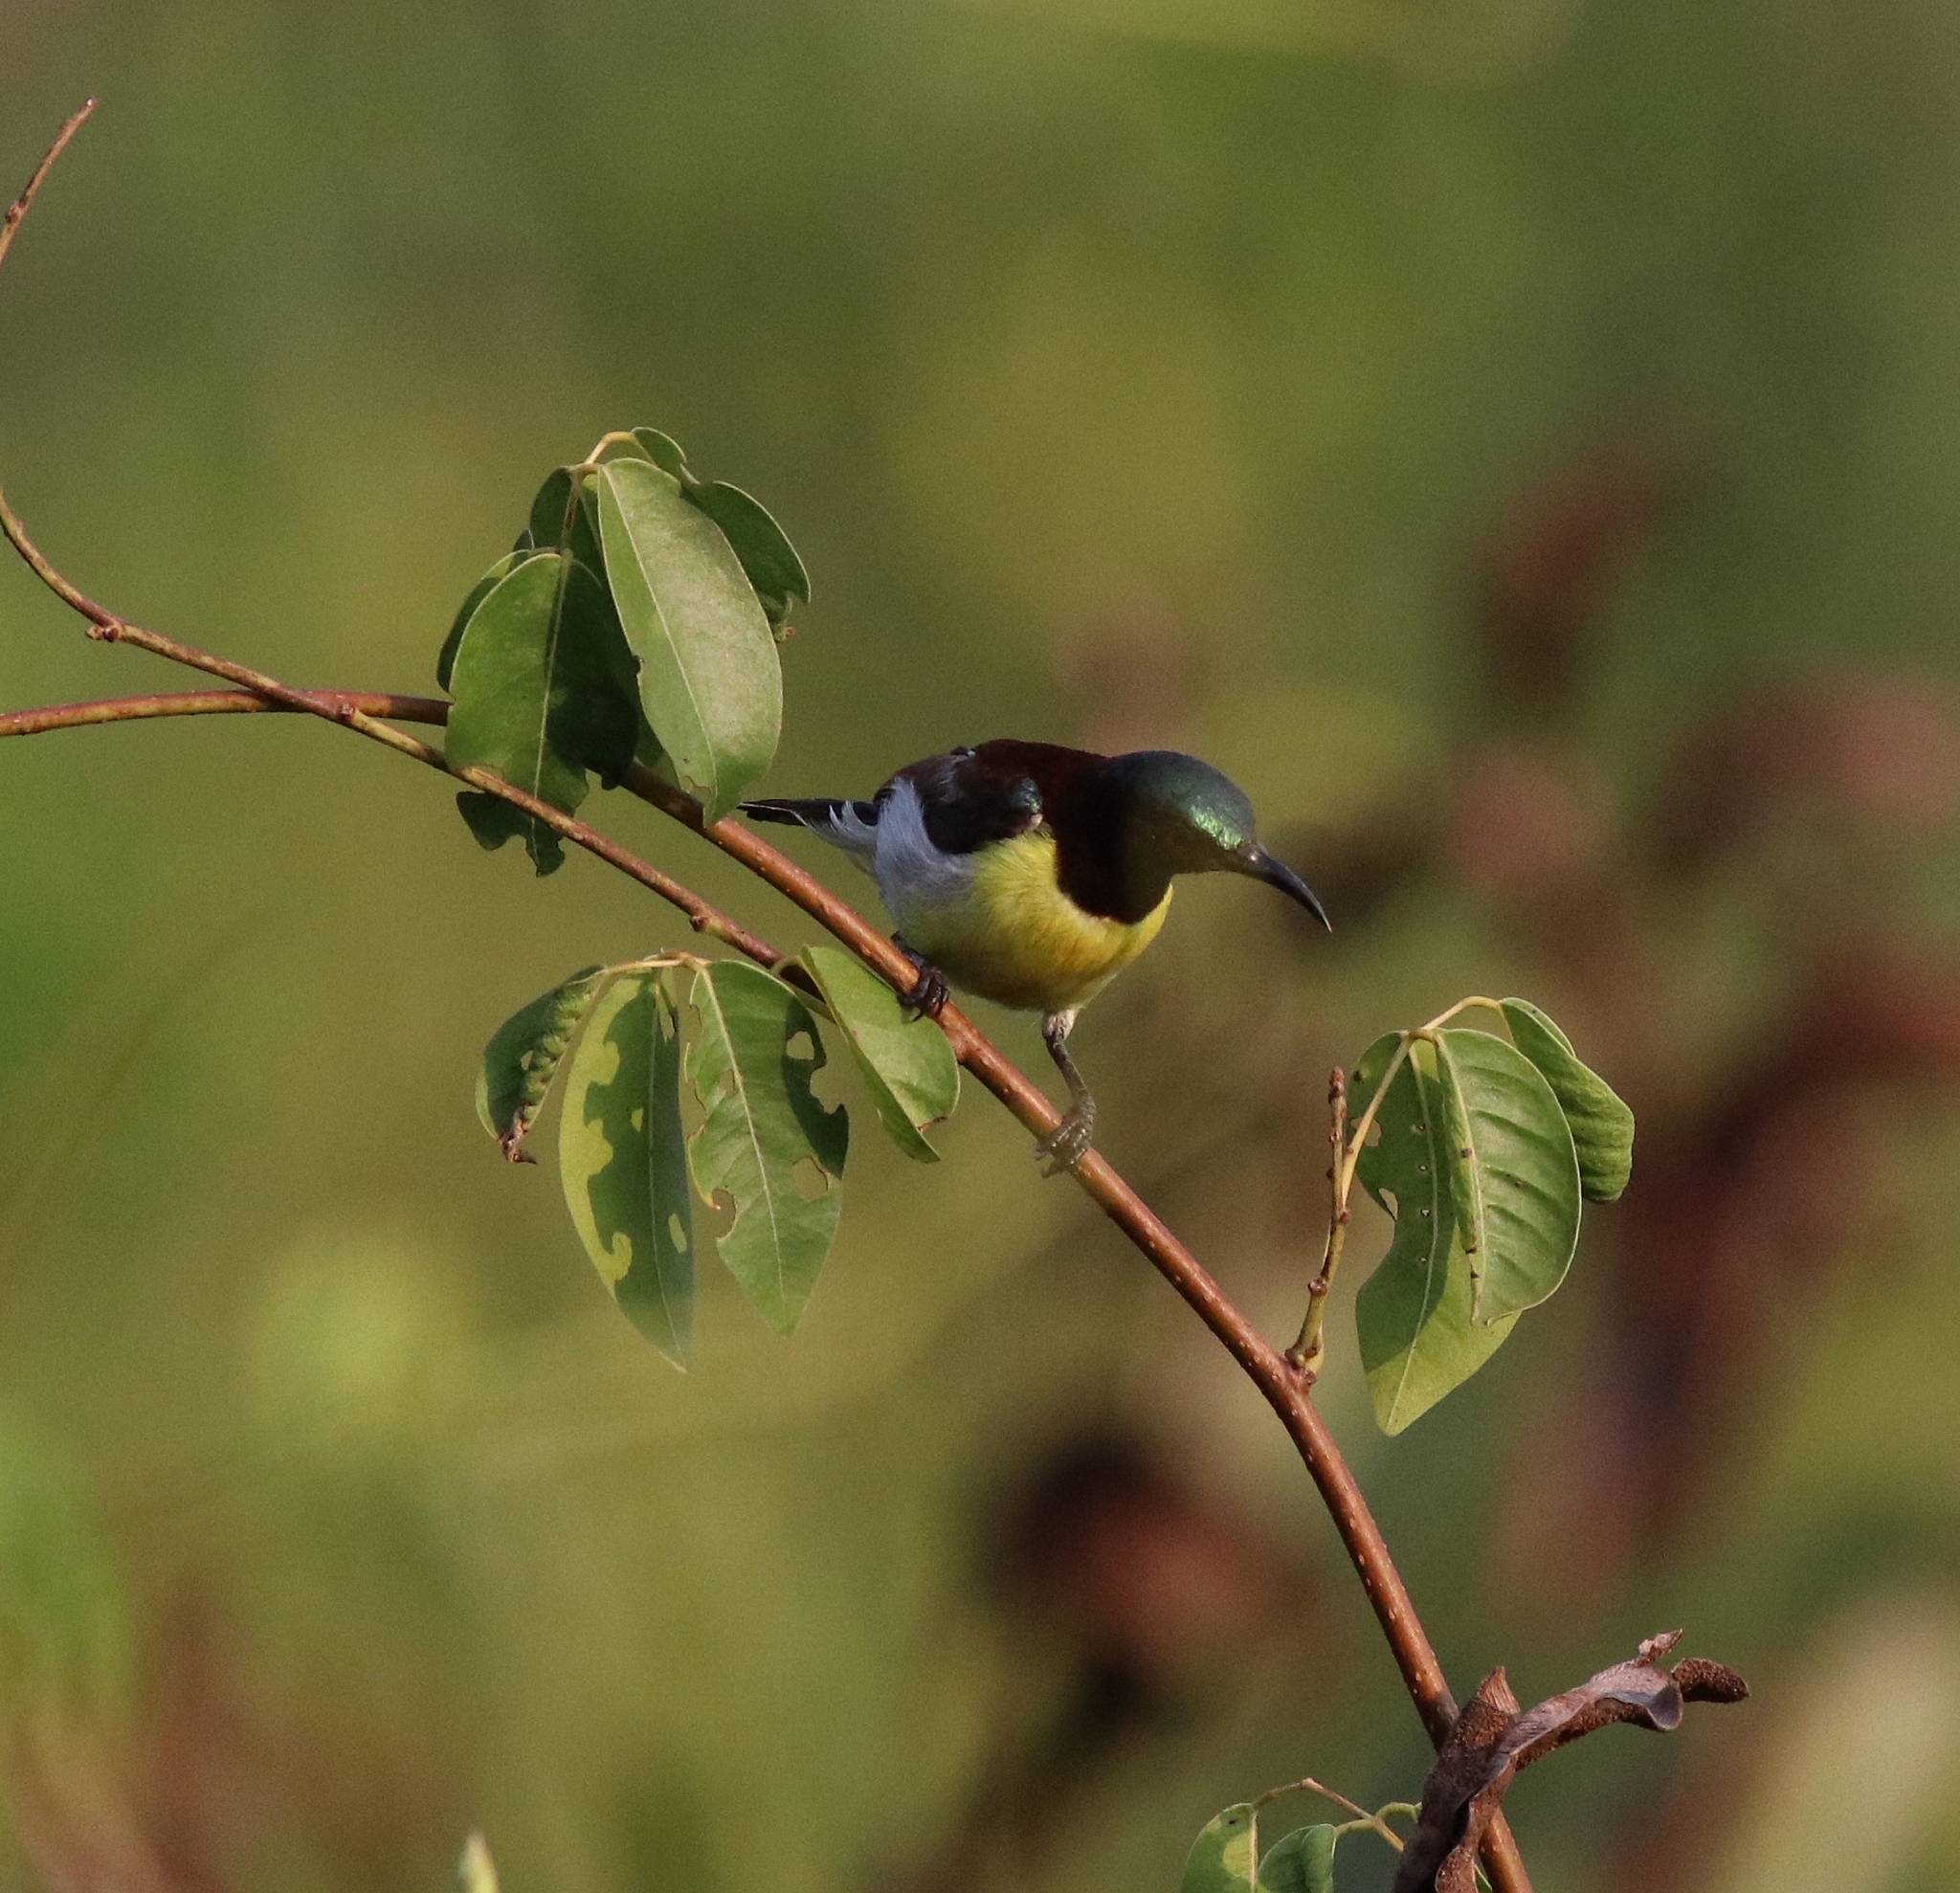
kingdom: Animalia
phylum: Chordata
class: Aves
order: Passeriformes
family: Nectariniidae
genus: Leptocoma
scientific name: Leptocoma zeylonica
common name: Purple-rumped sunbird
